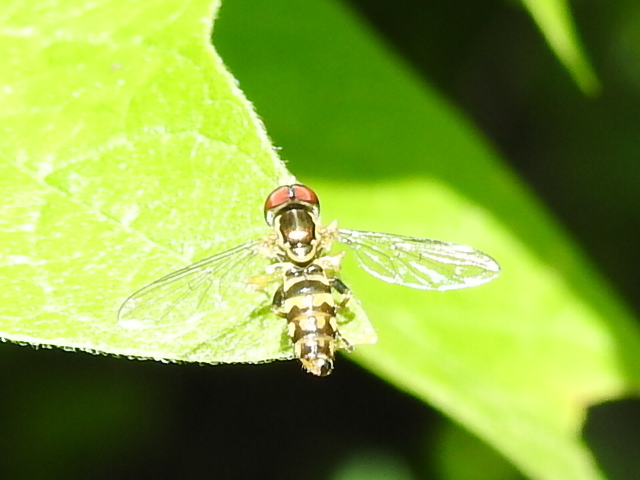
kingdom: Animalia
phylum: Arthropoda
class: Insecta
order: Diptera
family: Syrphidae
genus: Toxomerus
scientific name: Toxomerus geminatus
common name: Eastern calligrapher
